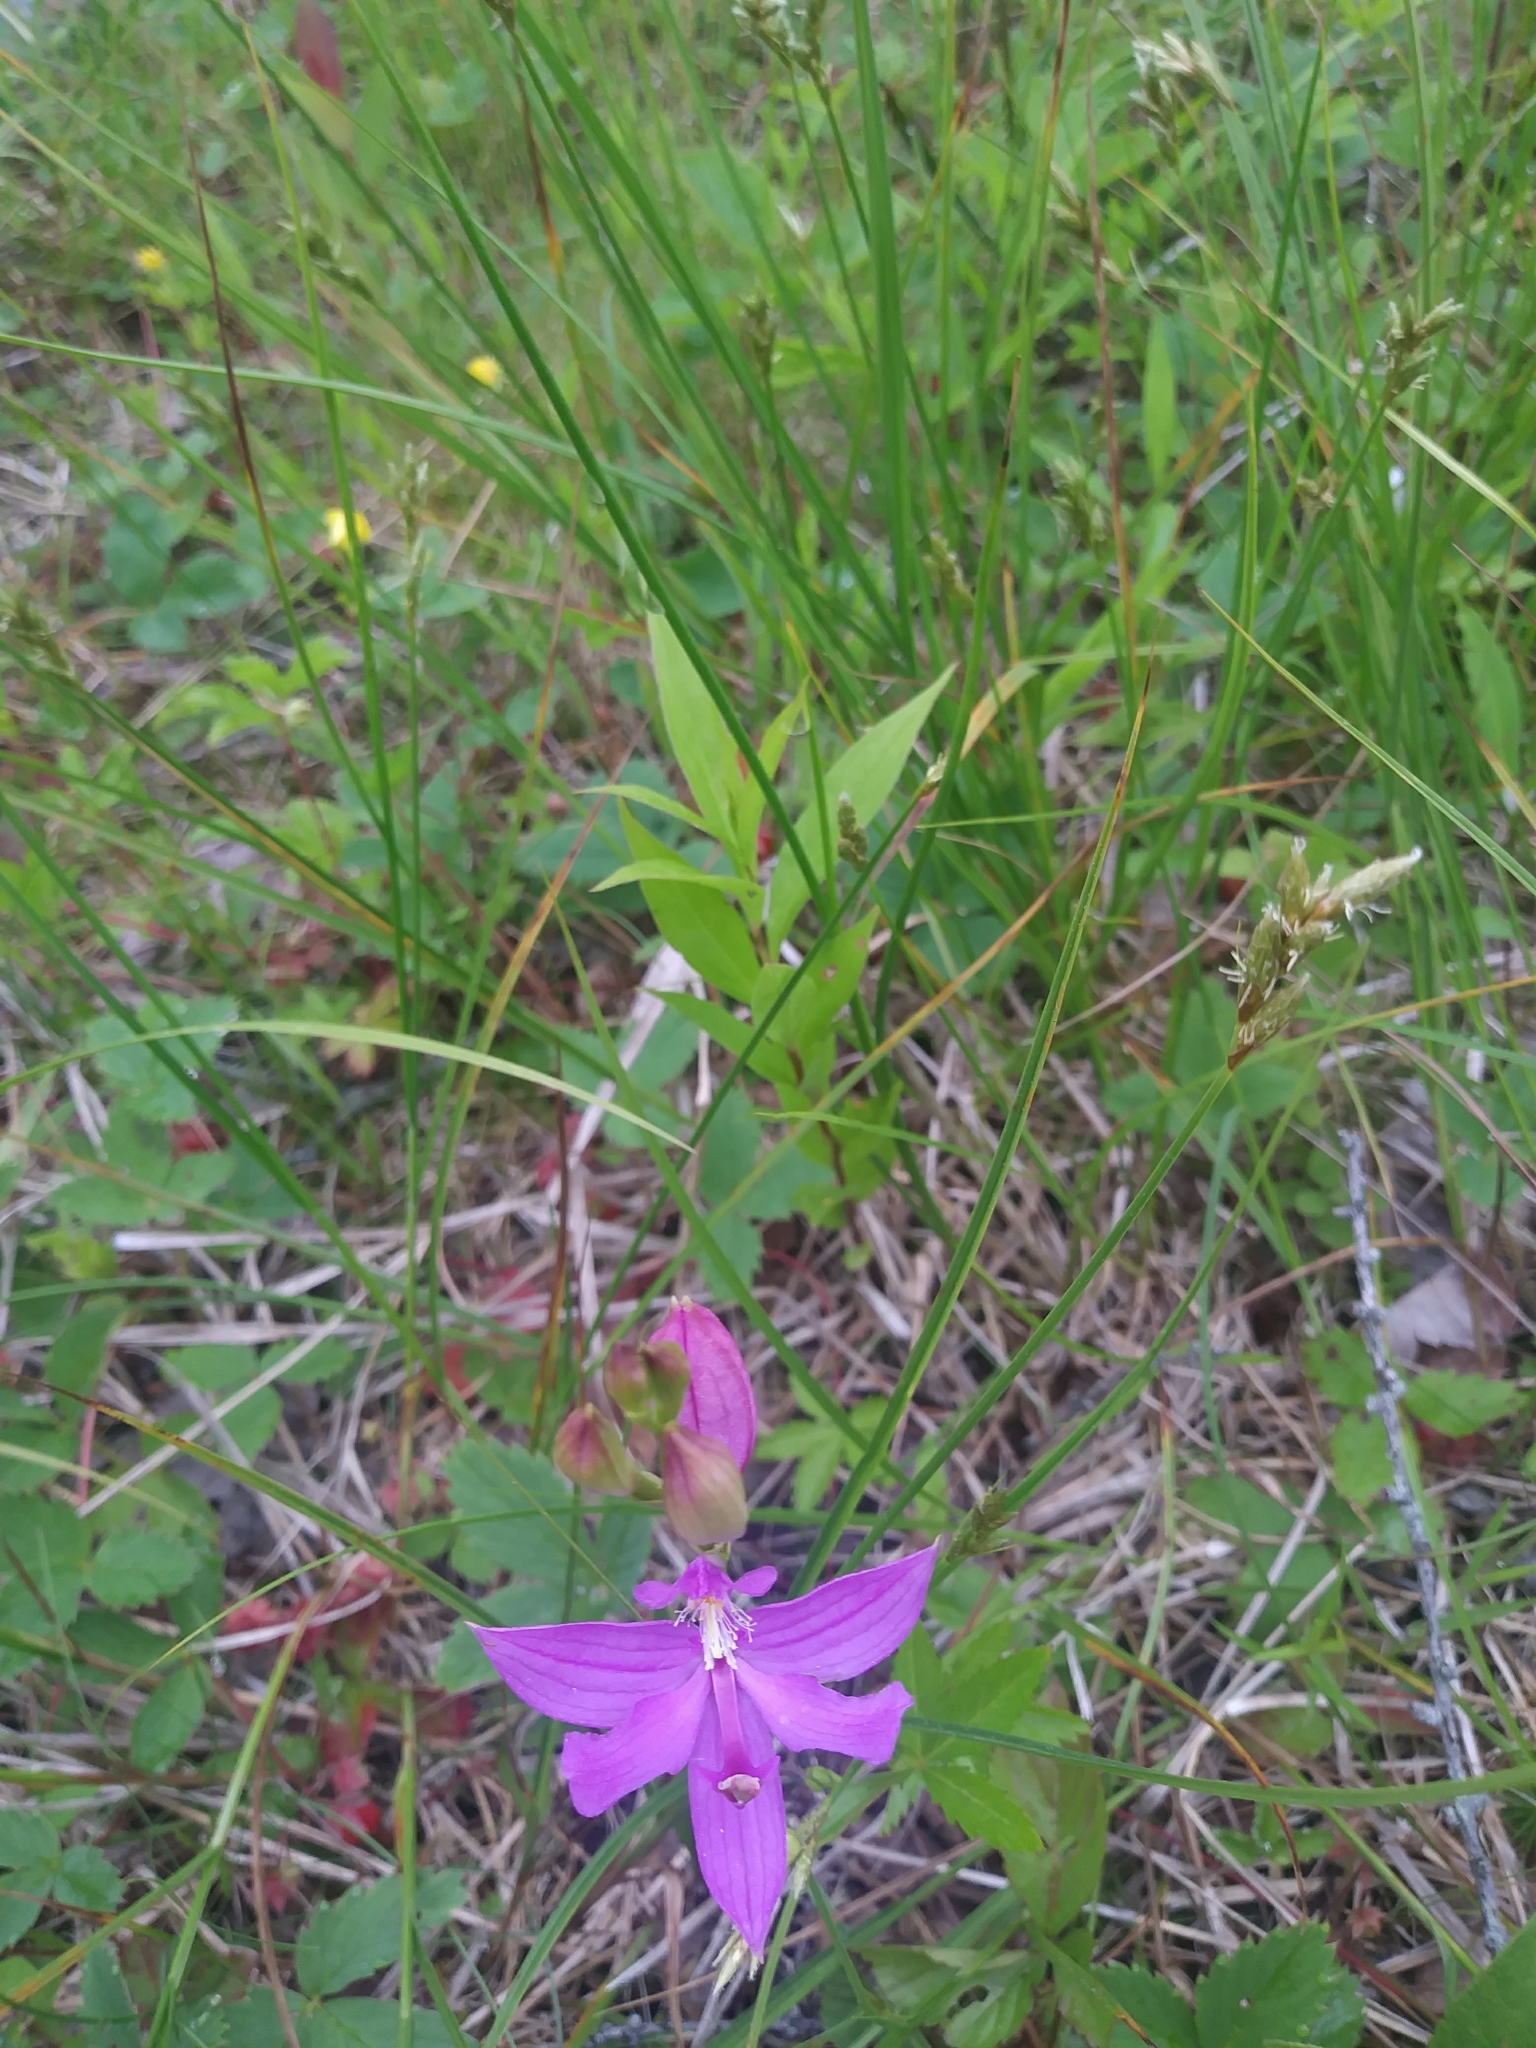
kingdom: Plantae
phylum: Tracheophyta
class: Liliopsida
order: Asparagales
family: Orchidaceae
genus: Calopogon
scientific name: Calopogon tuberosus
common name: Grass-pink
